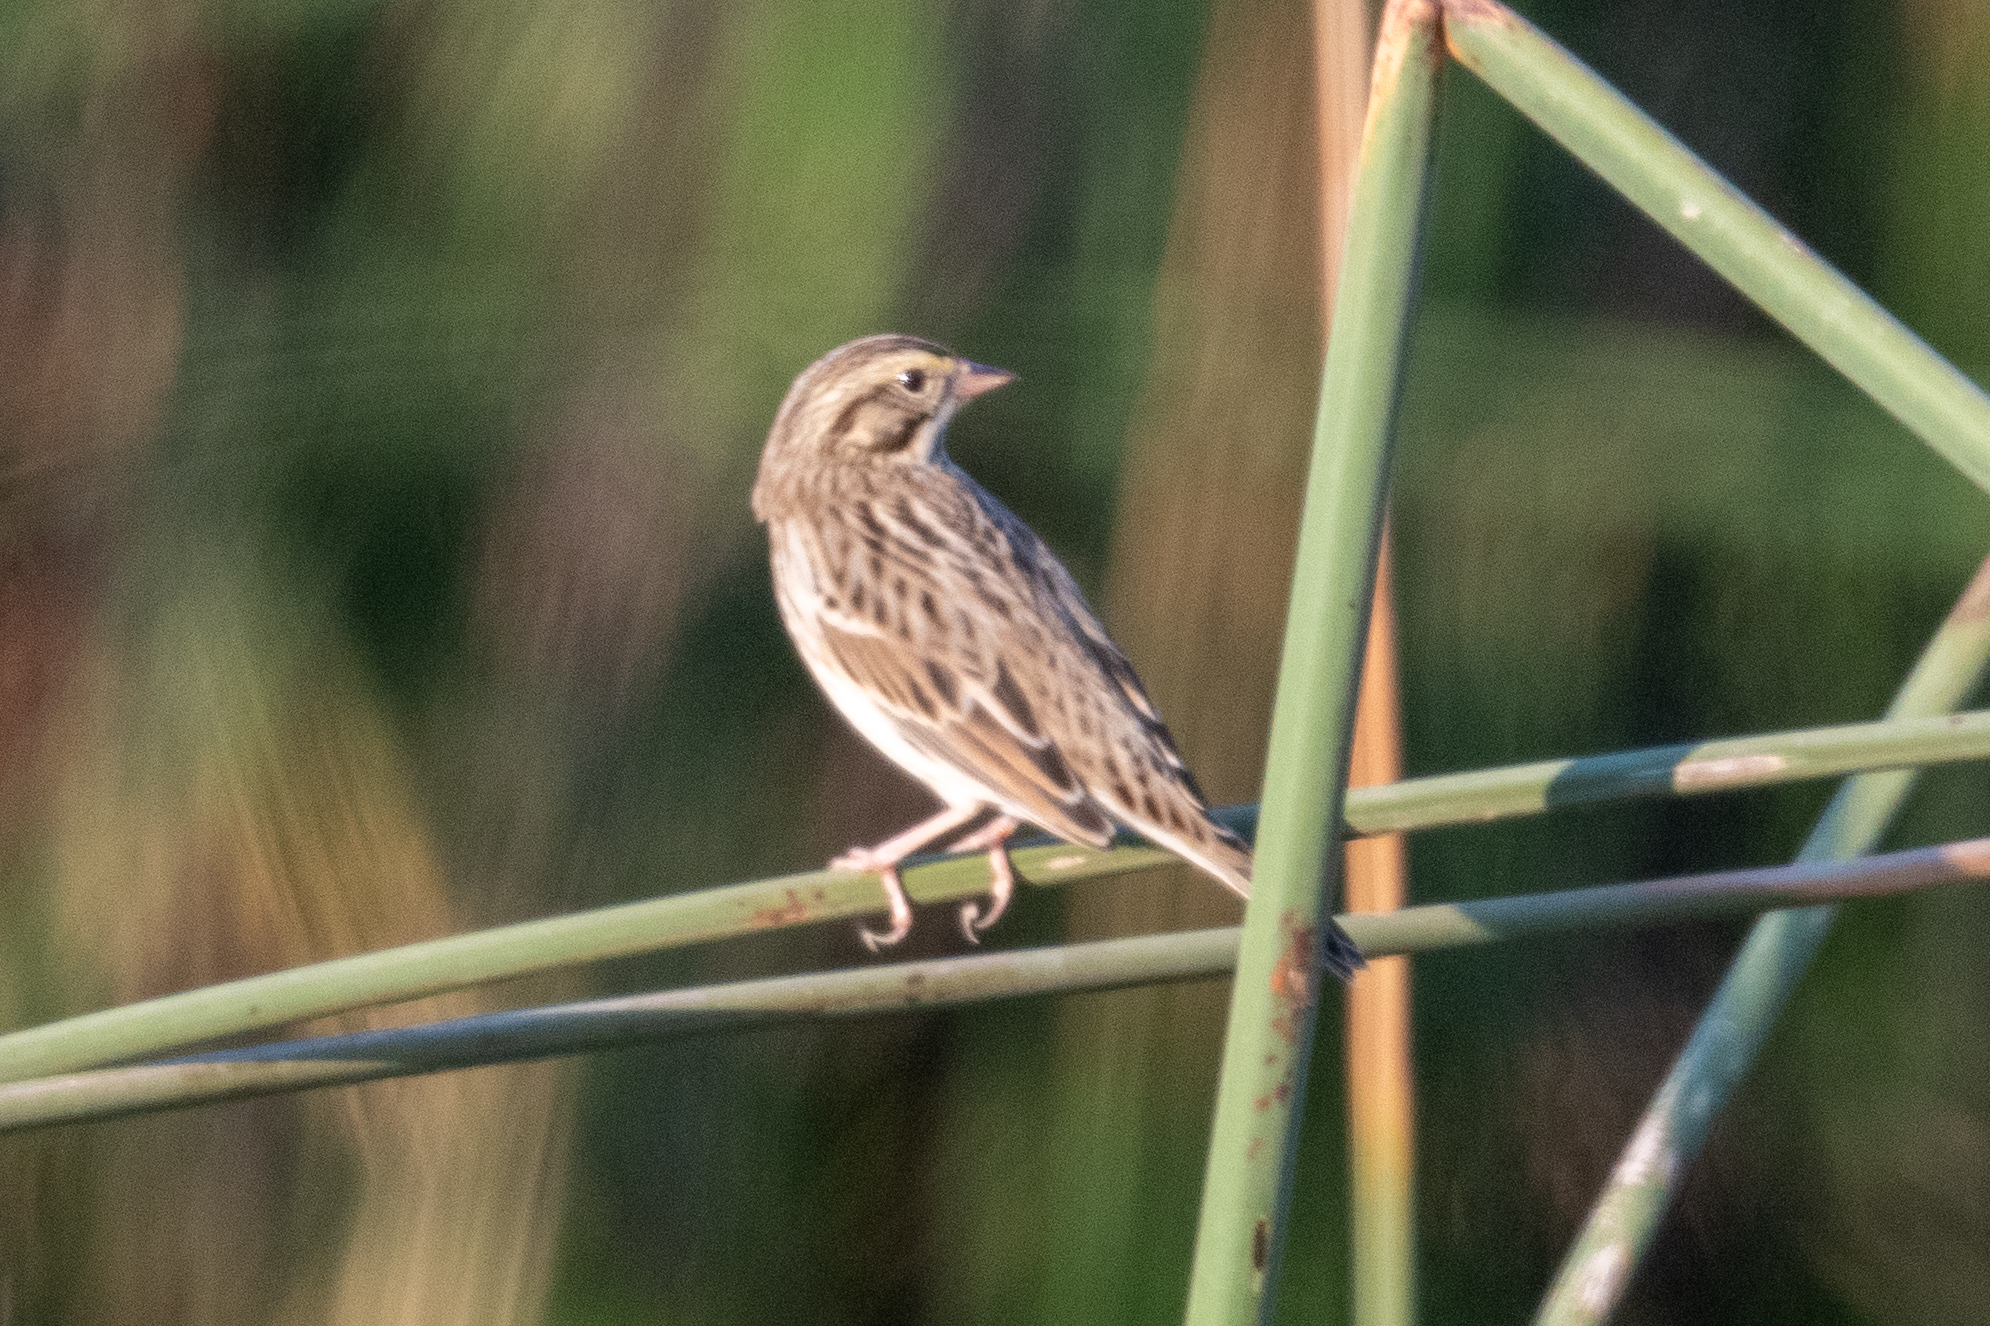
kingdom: Animalia
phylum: Chordata
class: Aves
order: Passeriformes
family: Passerellidae
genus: Passerculus
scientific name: Passerculus sandwichensis
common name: Savannah sparrow
